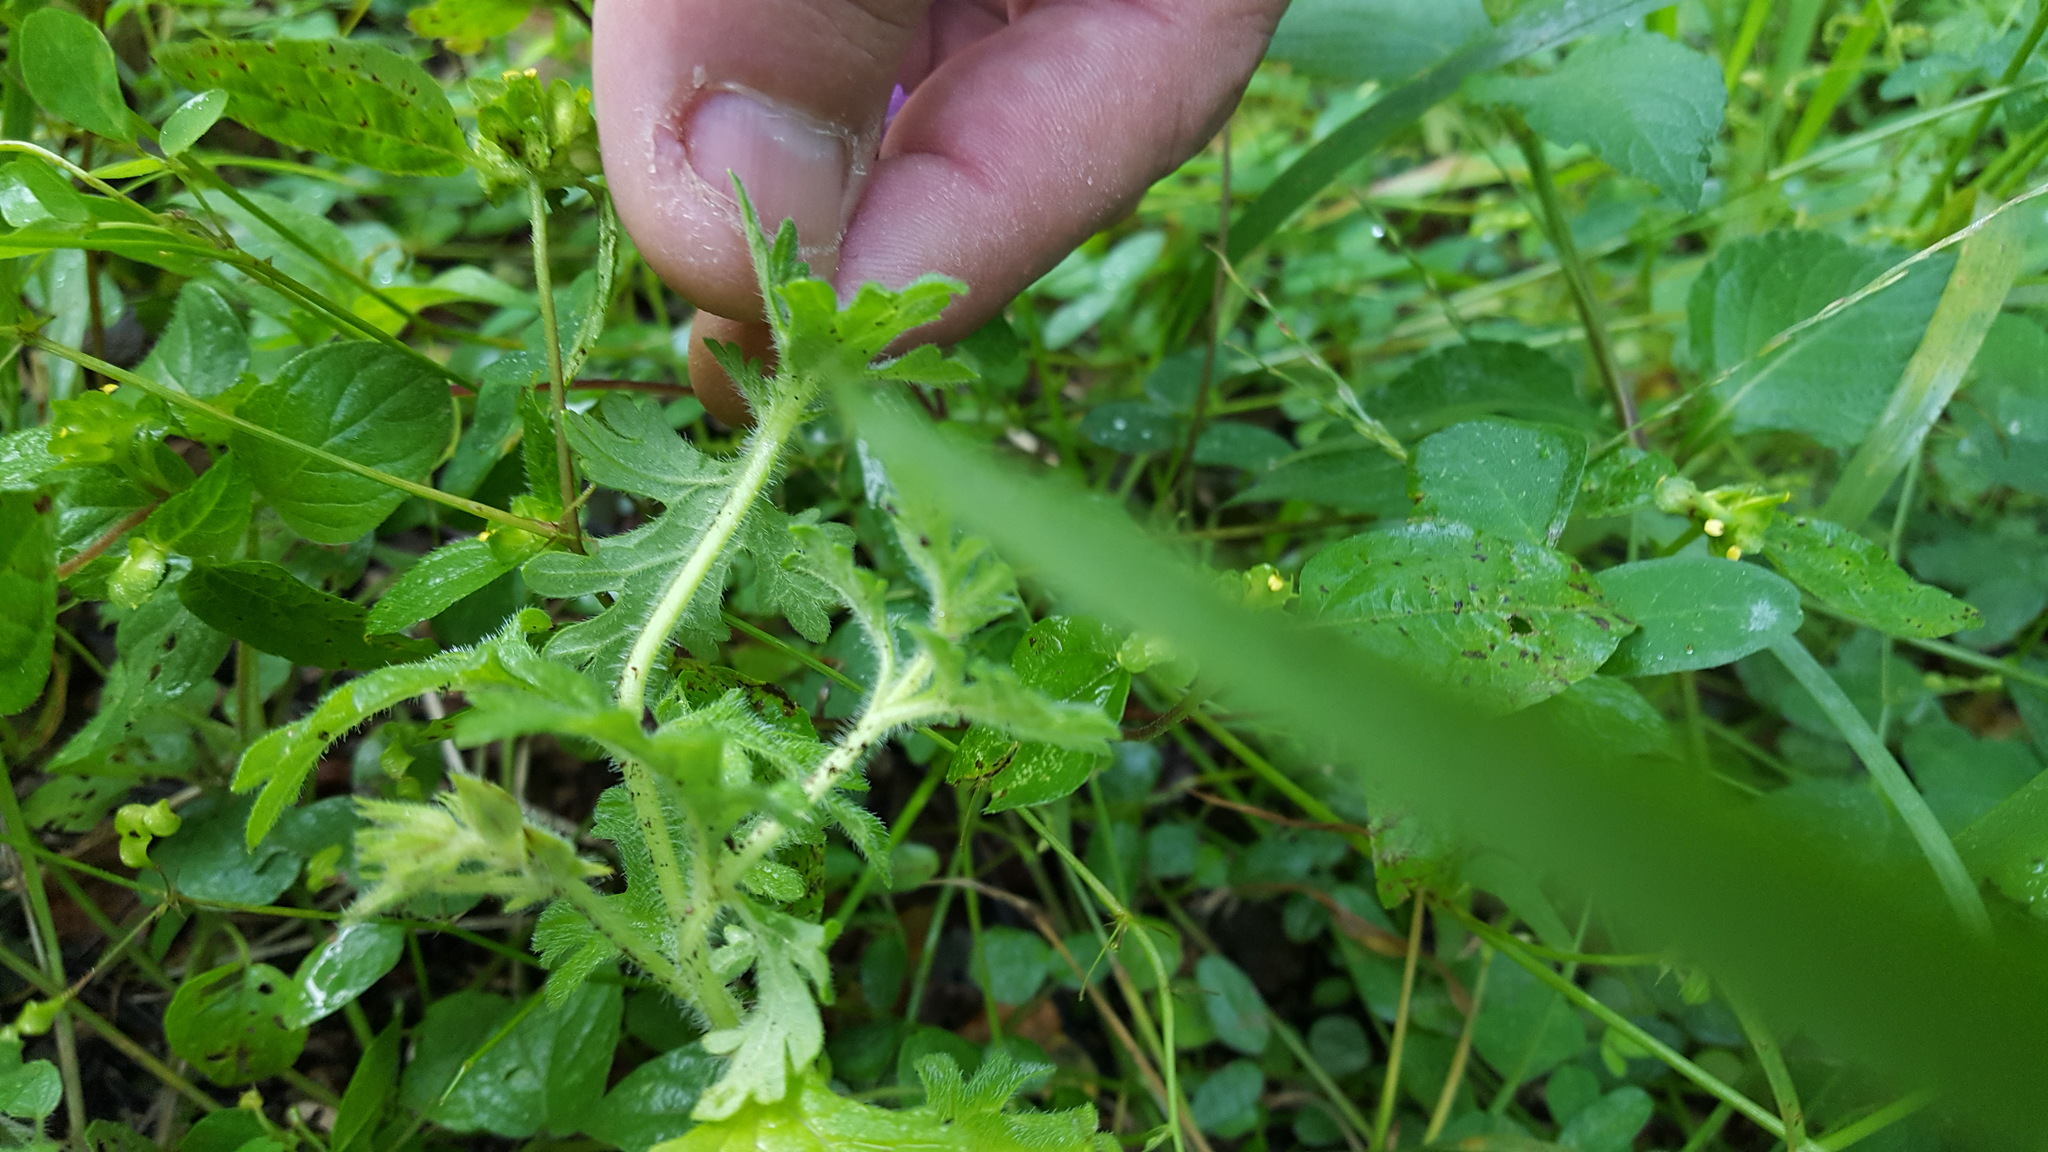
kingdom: Plantae
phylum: Tracheophyta
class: Magnoliopsida
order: Lamiales
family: Verbenaceae
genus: Verbena
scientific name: Verbena bipinnatifida
